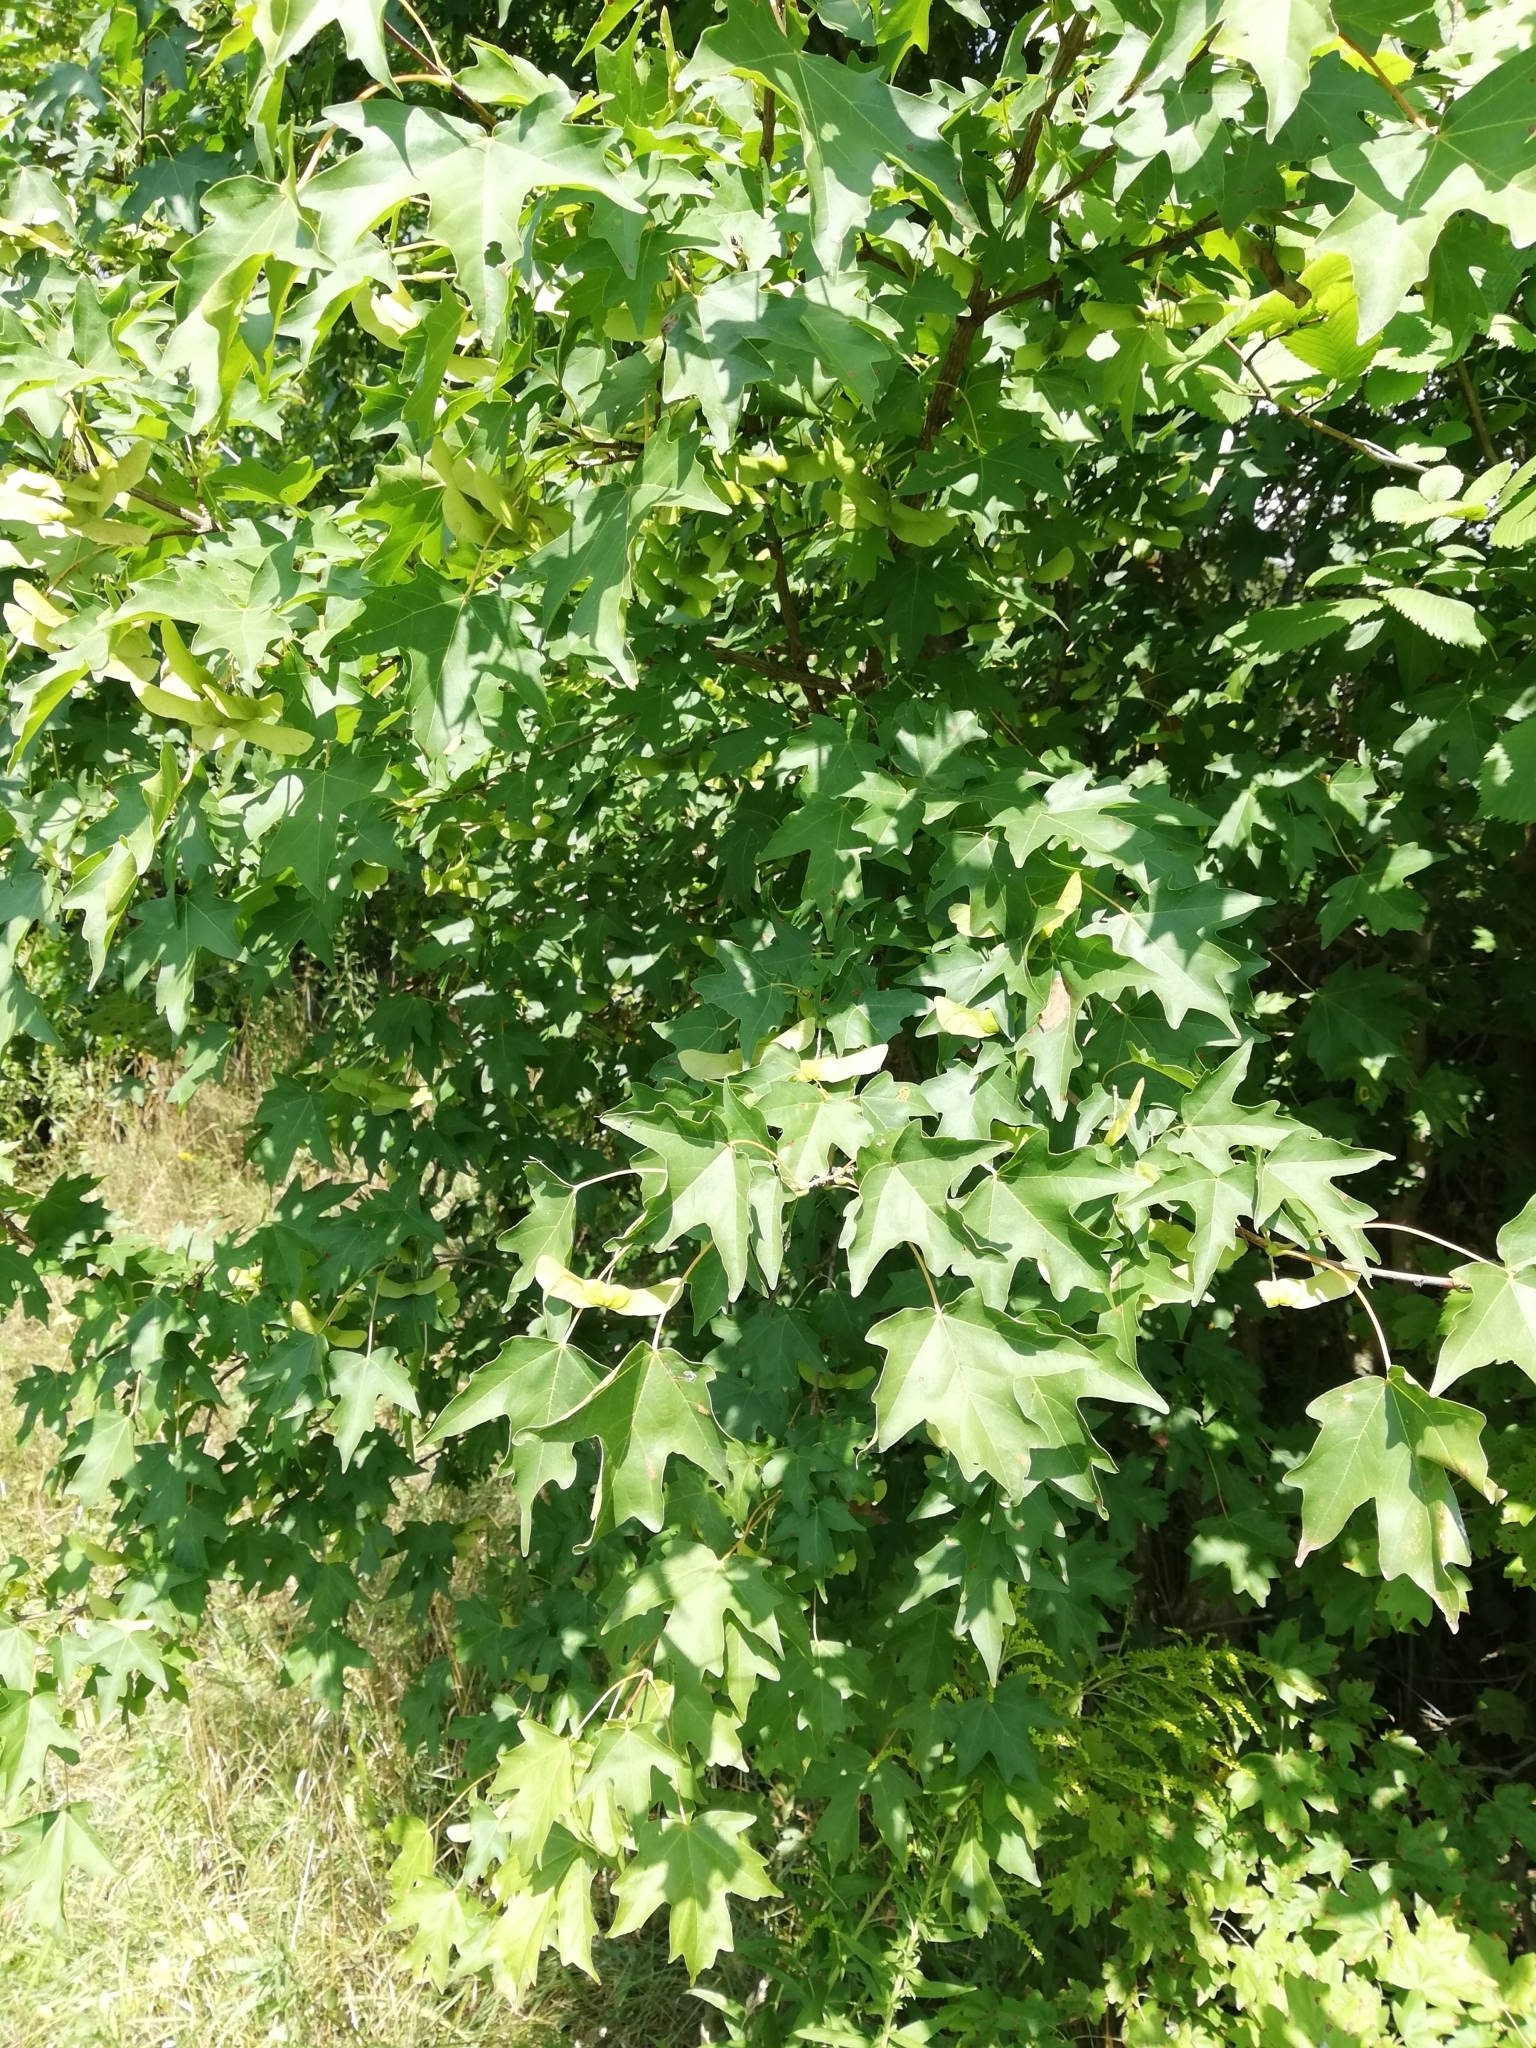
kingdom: Plantae
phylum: Tracheophyta
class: Magnoliopsida
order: Sapindales
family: Sapindaceae
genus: Acer
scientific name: Acer campestre
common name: Field maple
